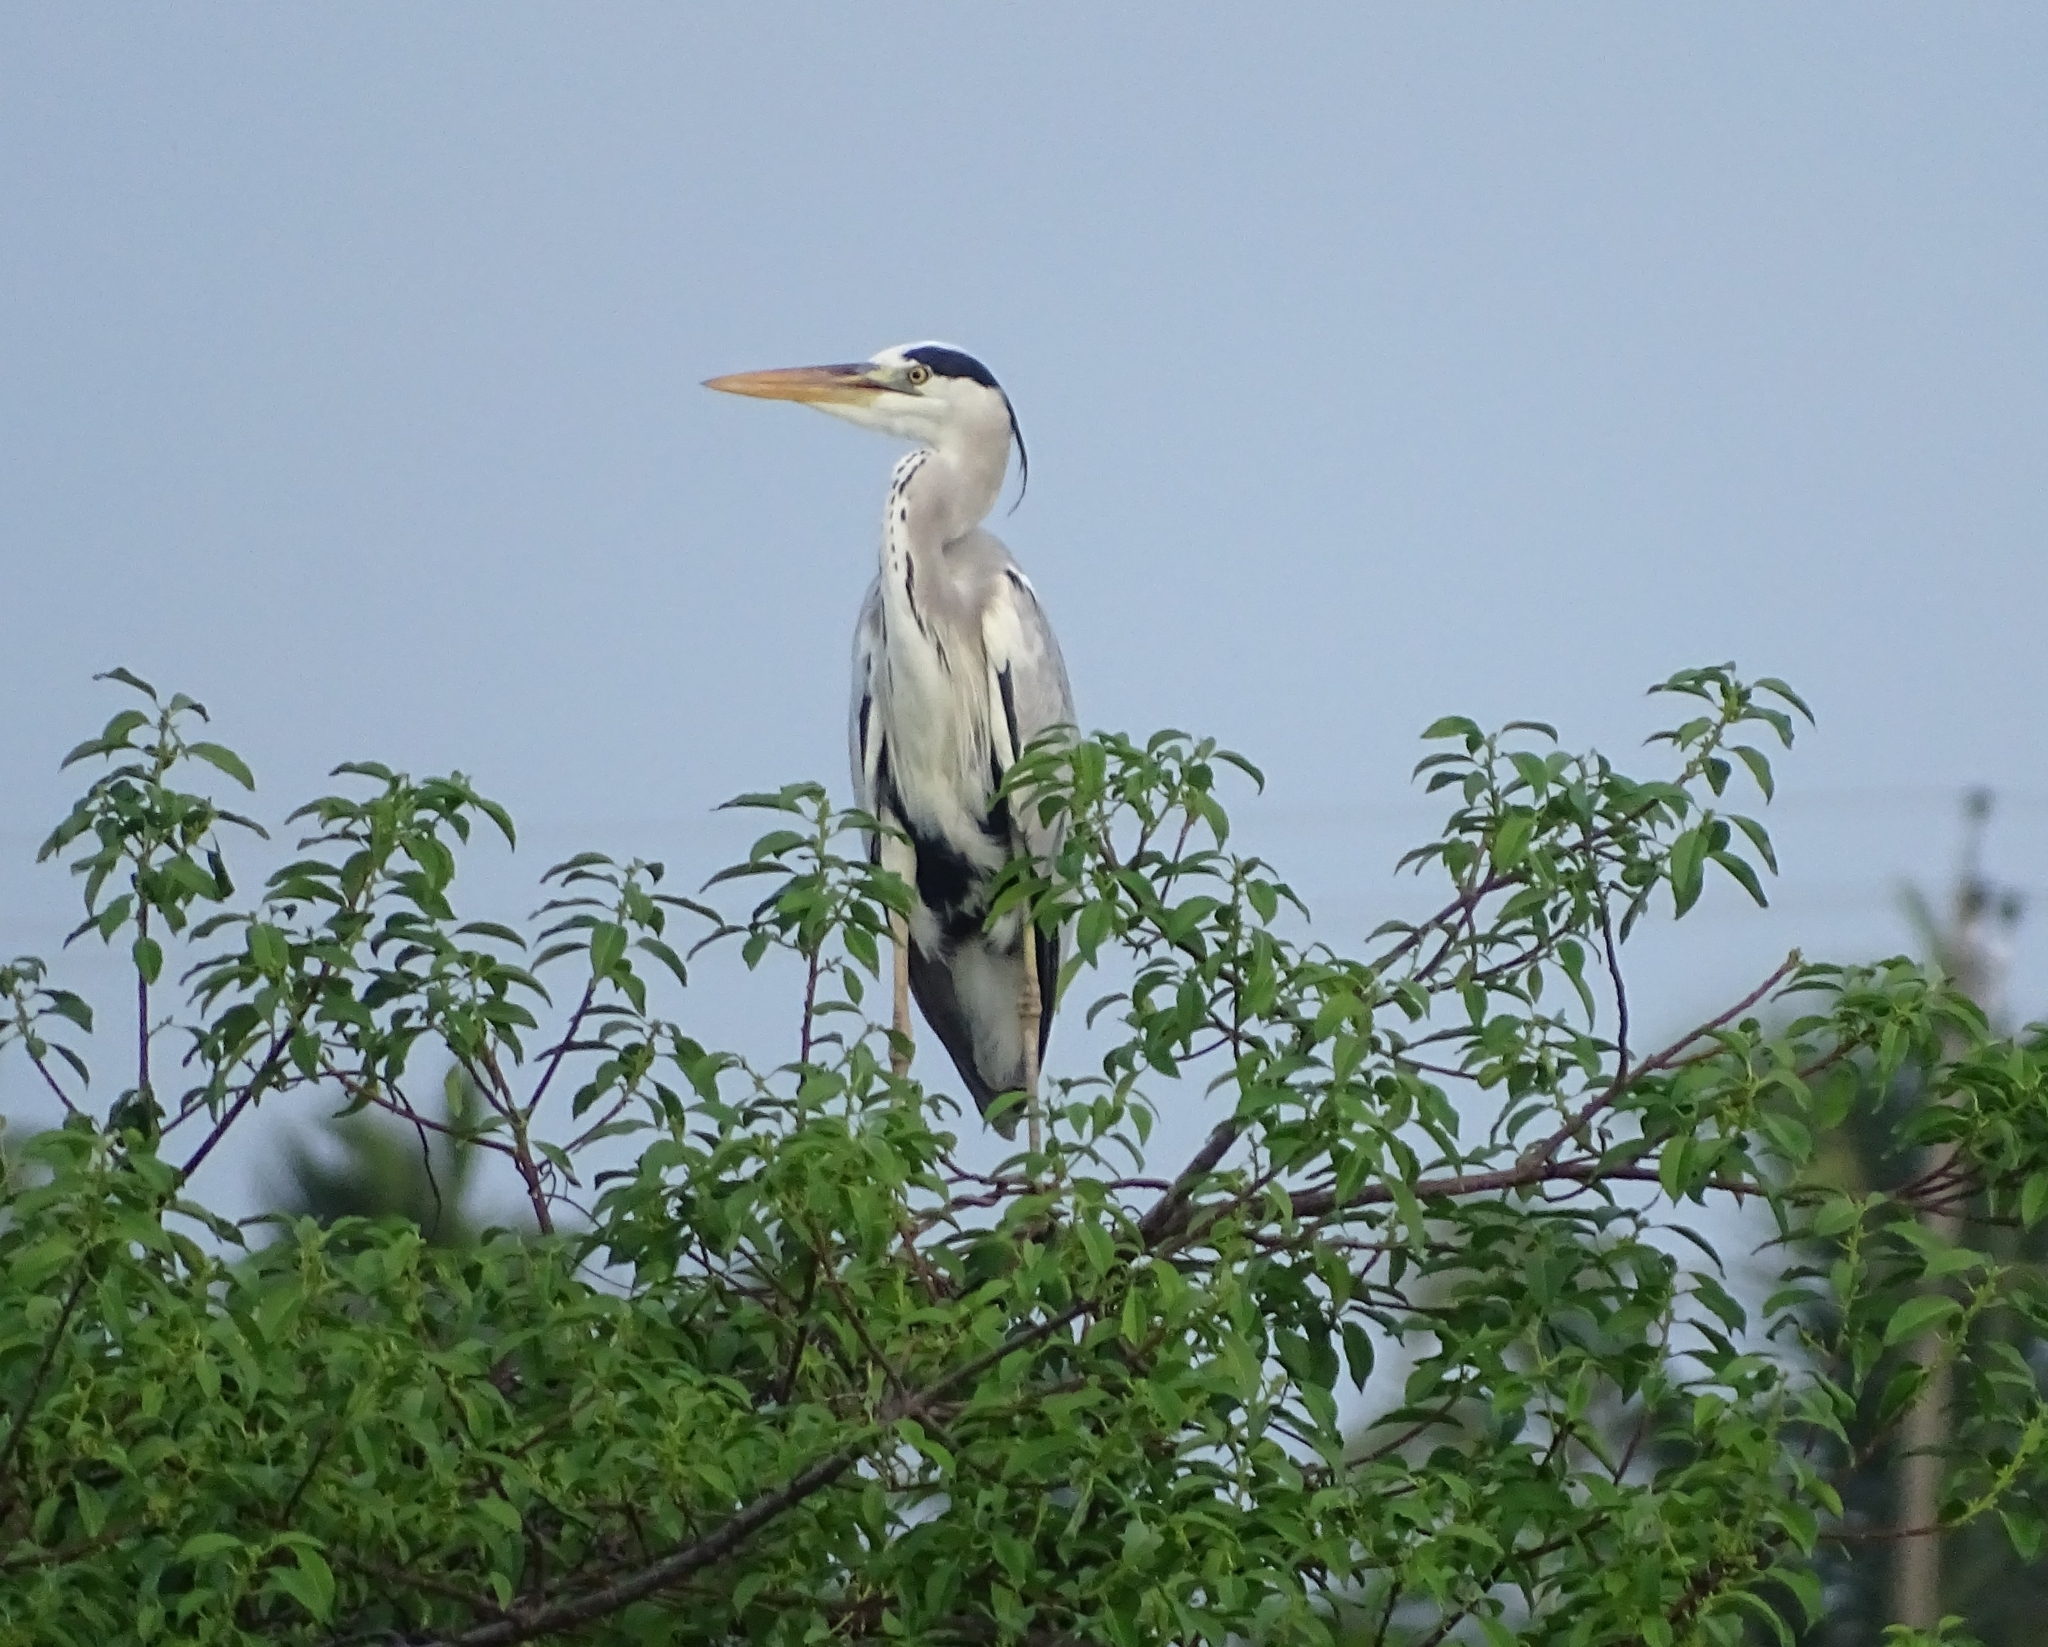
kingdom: Animalia
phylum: Chordata
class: Aves
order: Pelecaniformes
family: Ardeidae
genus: Ardea
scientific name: Ardea cinerea
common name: Grey heron
